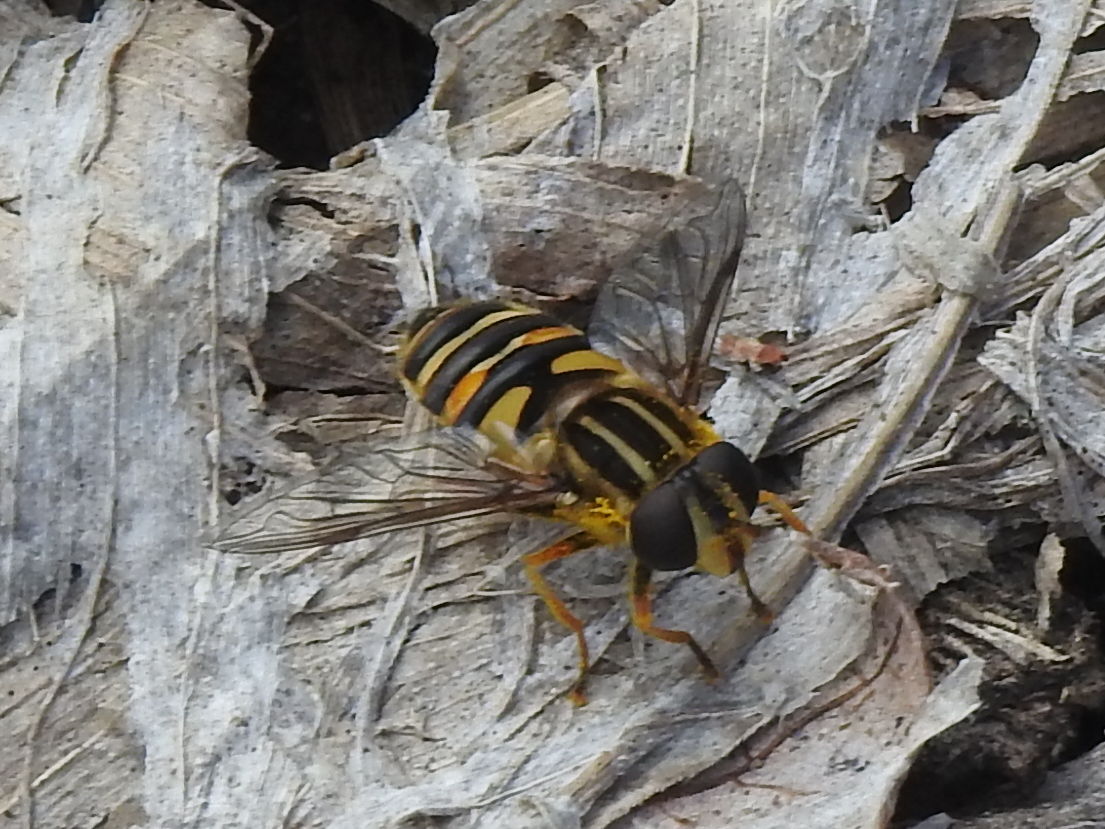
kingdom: Animalia
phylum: Arthropoda
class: Insecta
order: Diptera
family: Syrphidae
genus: Helophilus
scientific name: Helophilus fasciatus
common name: Narrow-headed marsh fly
